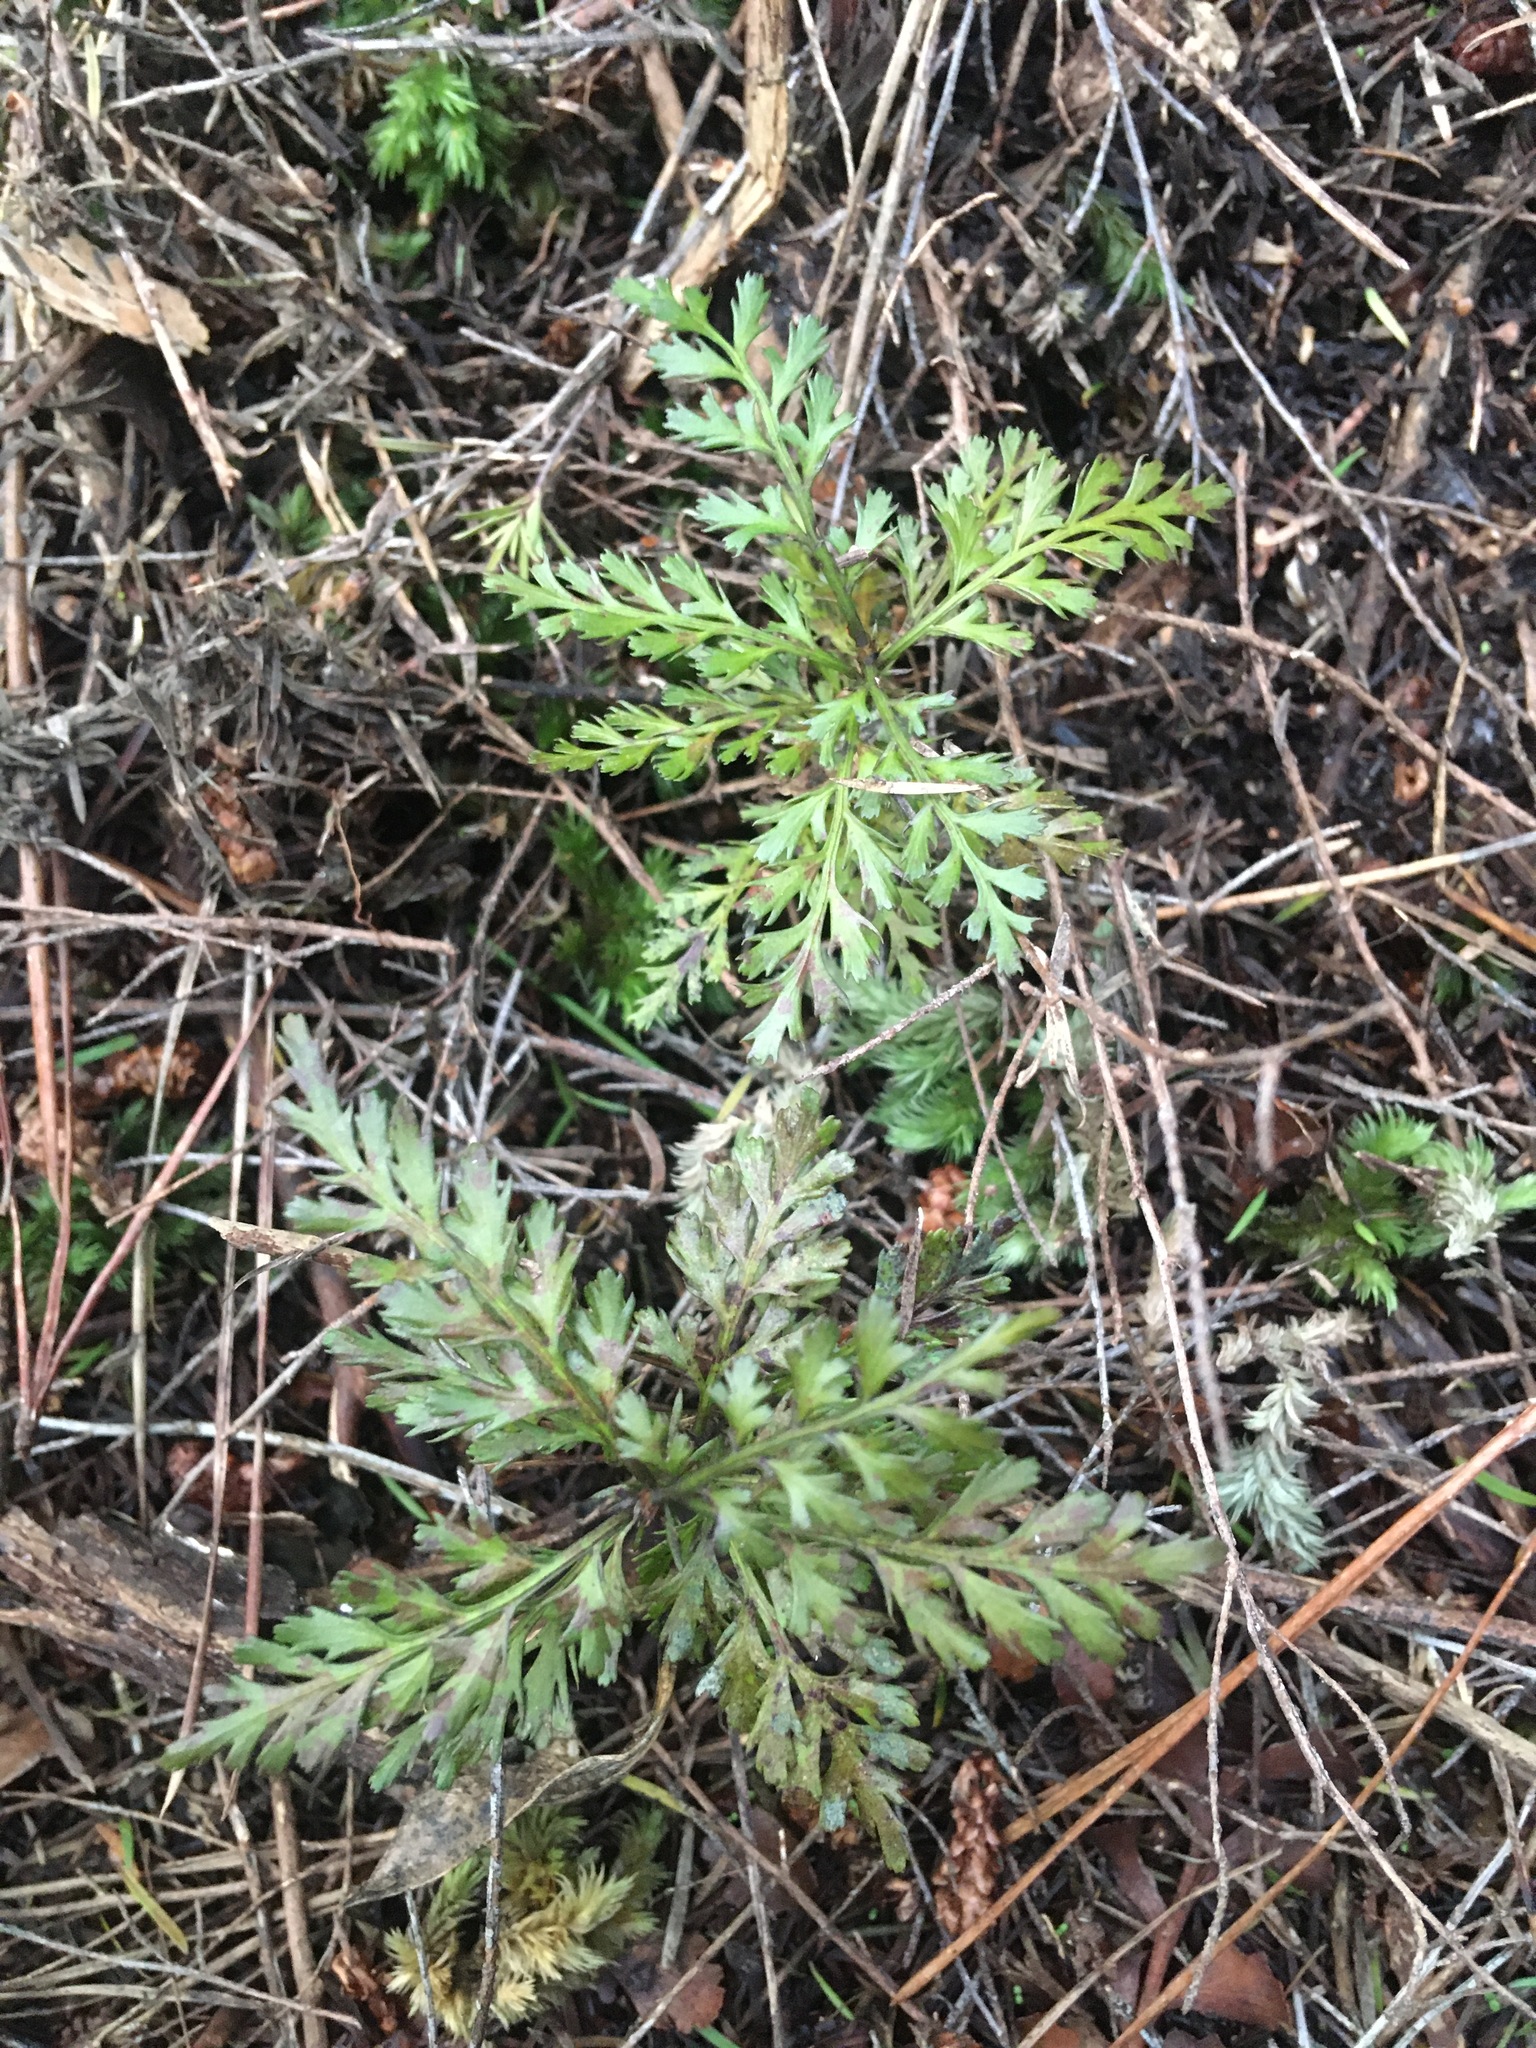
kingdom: Plantae
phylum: Tracheophyta
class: Pinopsida
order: Pinales
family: Phyllocladaceae
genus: Phyllocladus
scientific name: Phyllocladus trichomanoides
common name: Celery pine
